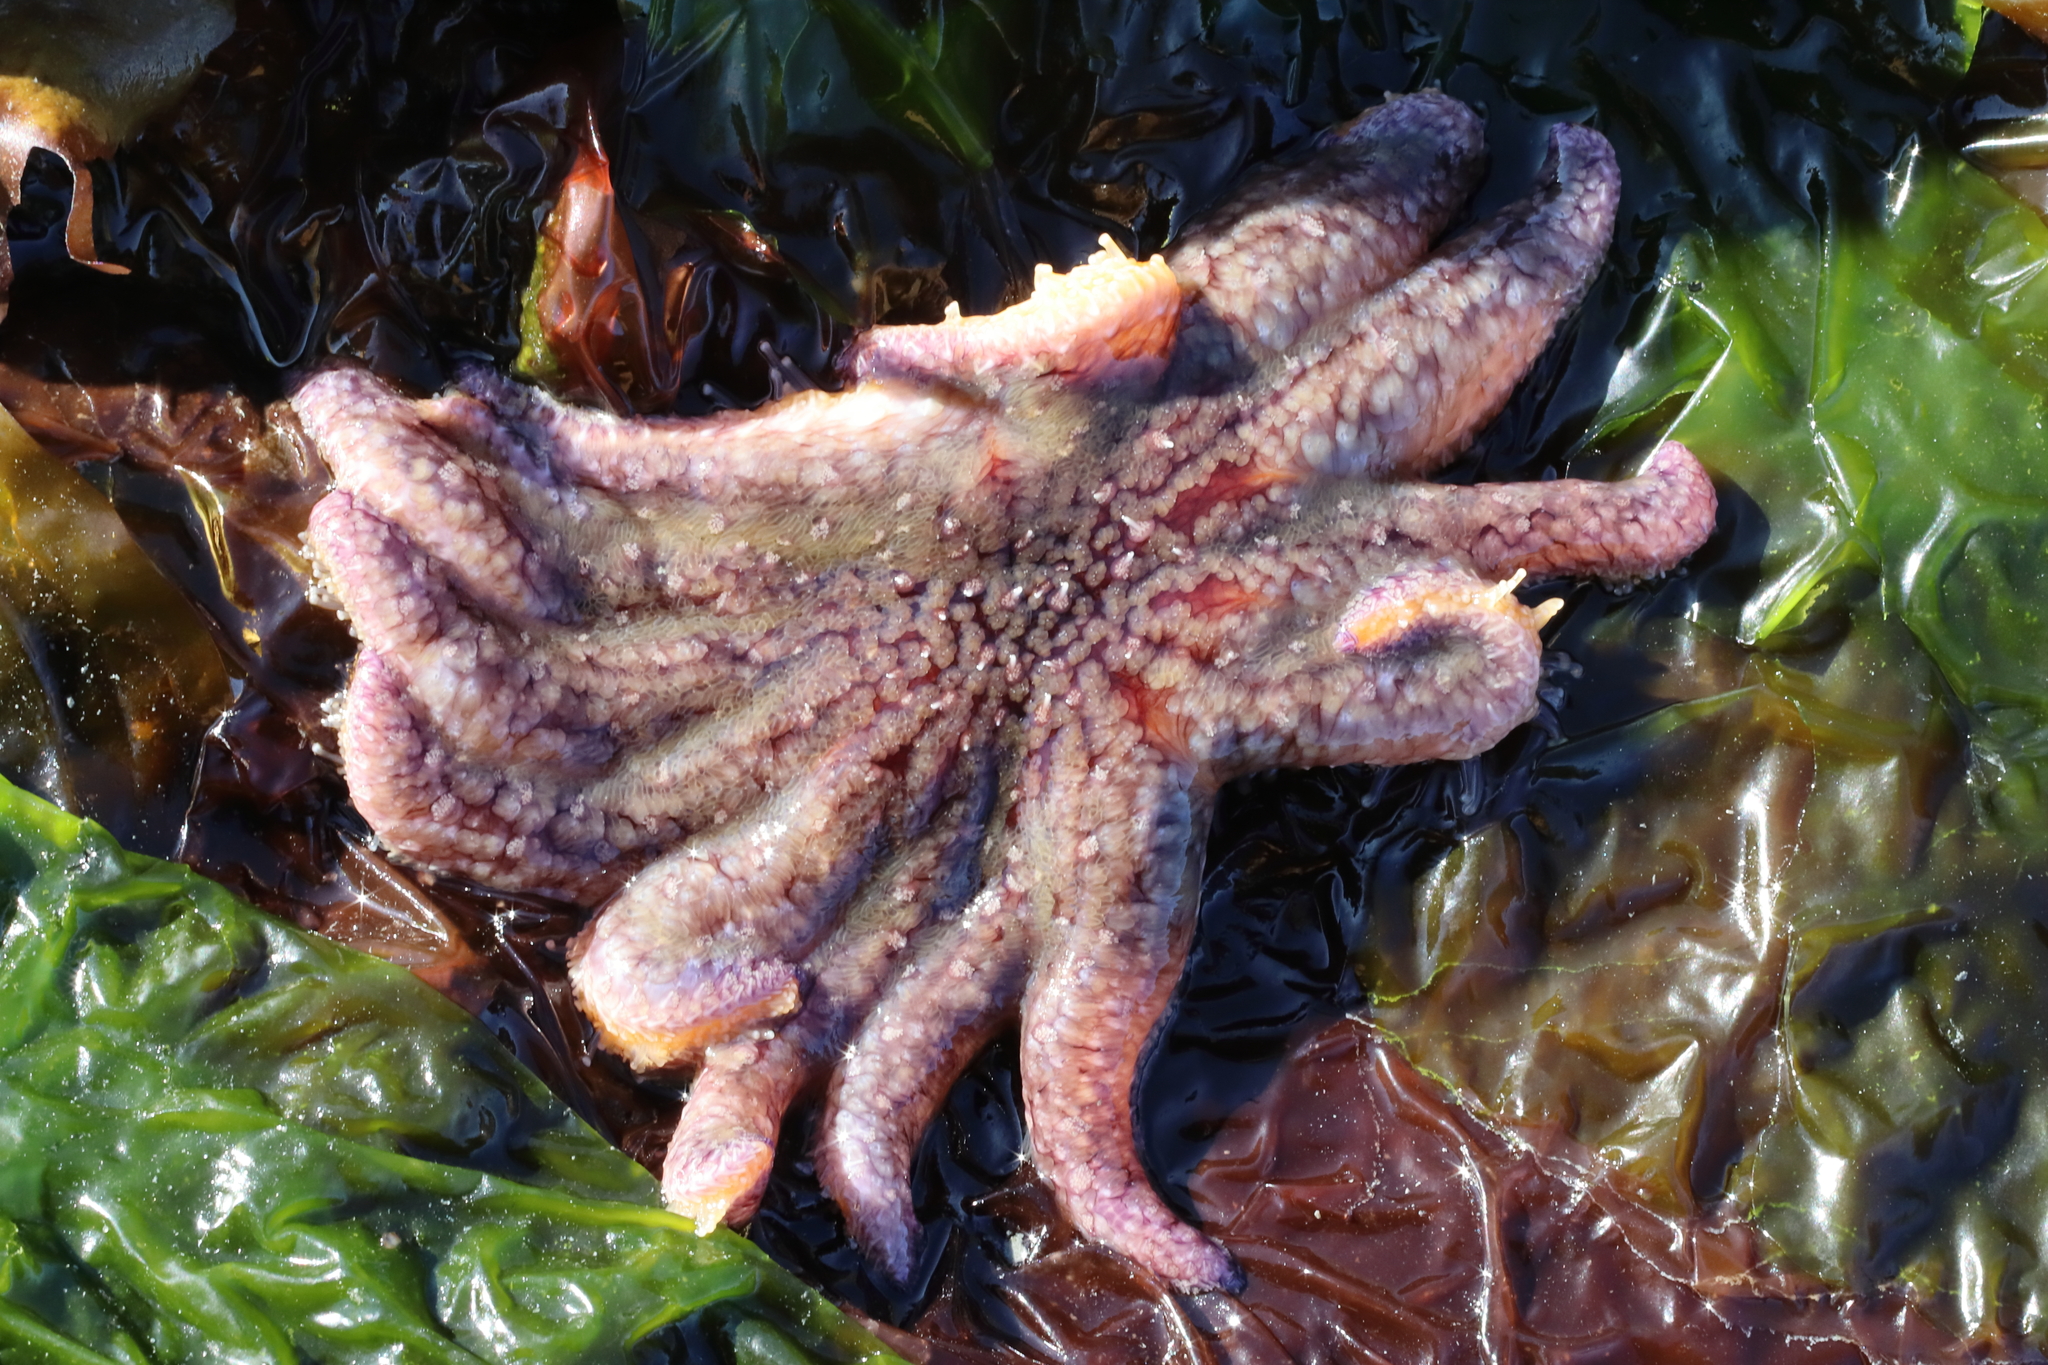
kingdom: Animalia
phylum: Echinodermata
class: Asteroidea
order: Forcipulatida
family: Asteriidae
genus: Pycnopodia
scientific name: Pycnopodia helianthoides
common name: Rag mop
